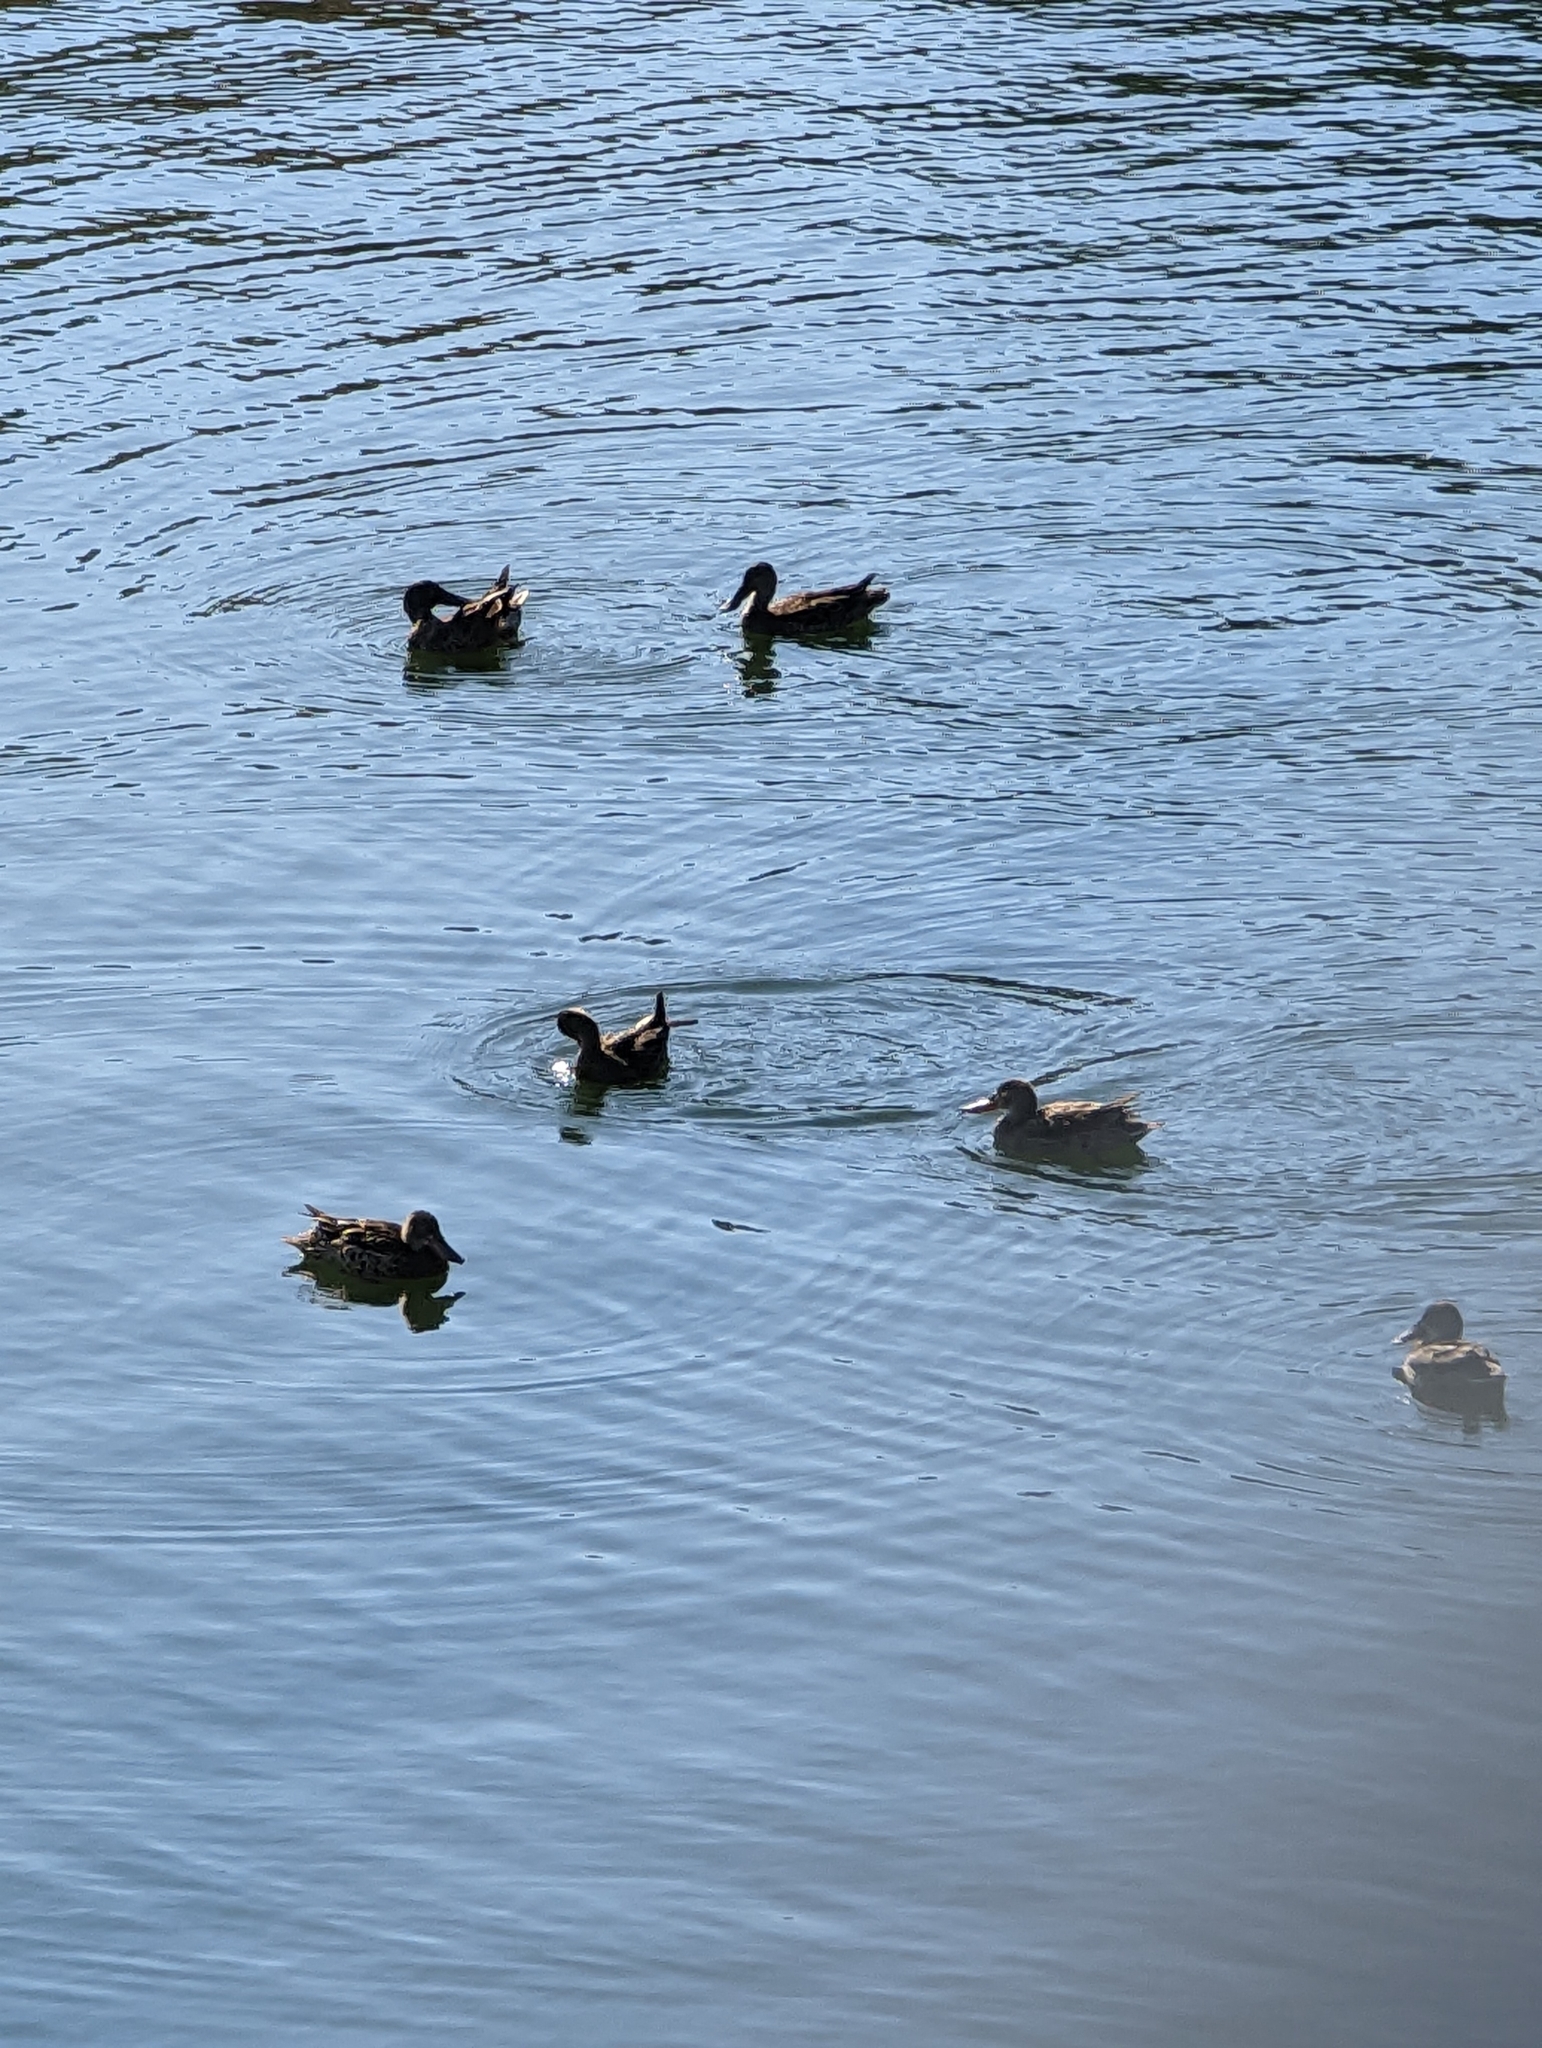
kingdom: Animalia
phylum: Chordata
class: Aves
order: Anseriformes
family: Anatidae
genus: Spatula
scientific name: Spatula clypeata
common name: Northern shoveler
